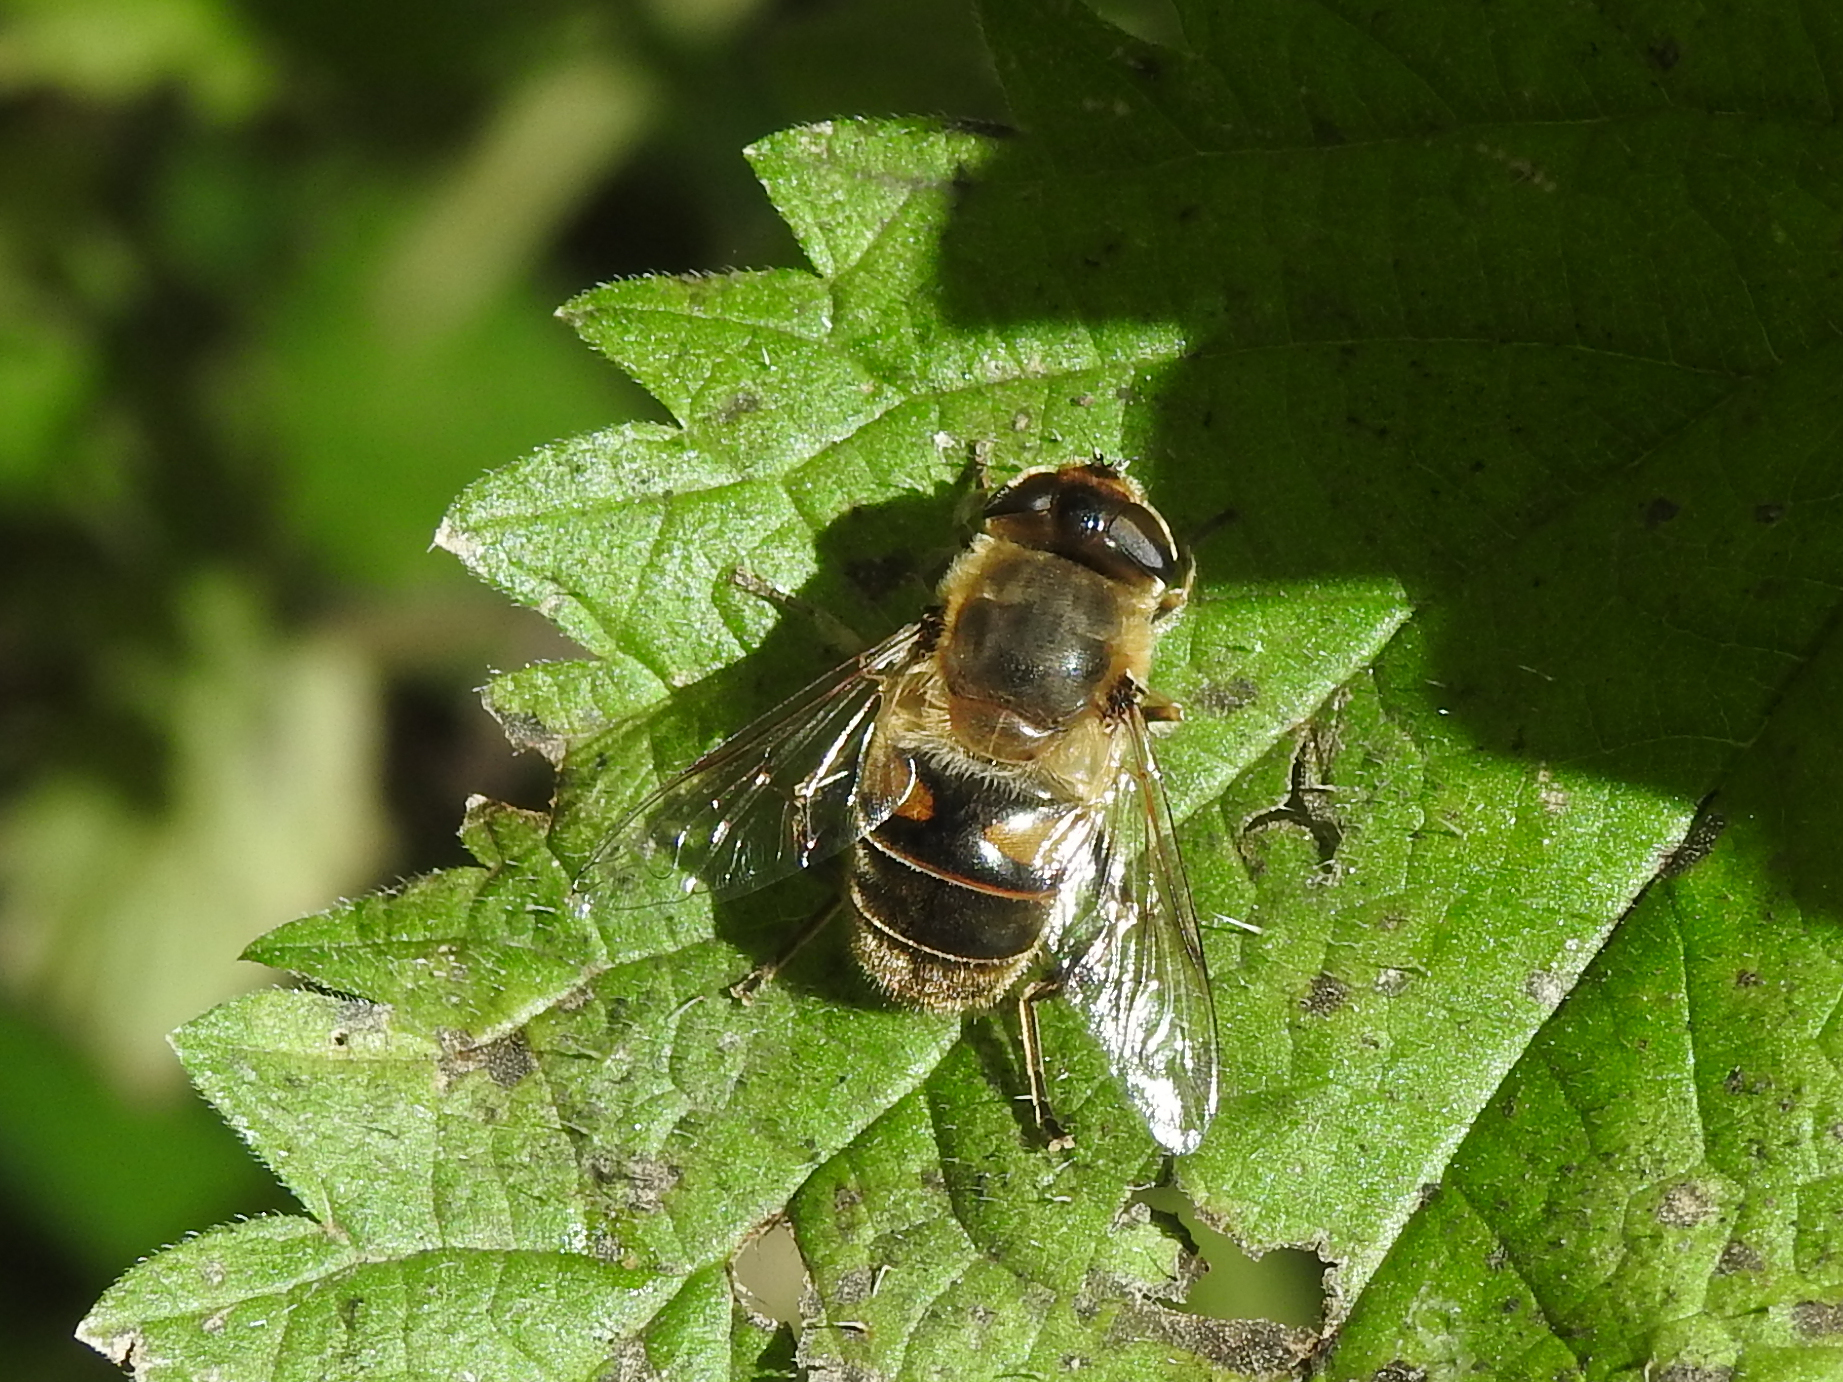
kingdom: Animalia
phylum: Arthropoda
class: Insecta
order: Diptera
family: Syrphidae
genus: Eristalis
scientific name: Eristalis tenax
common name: Drone fly
